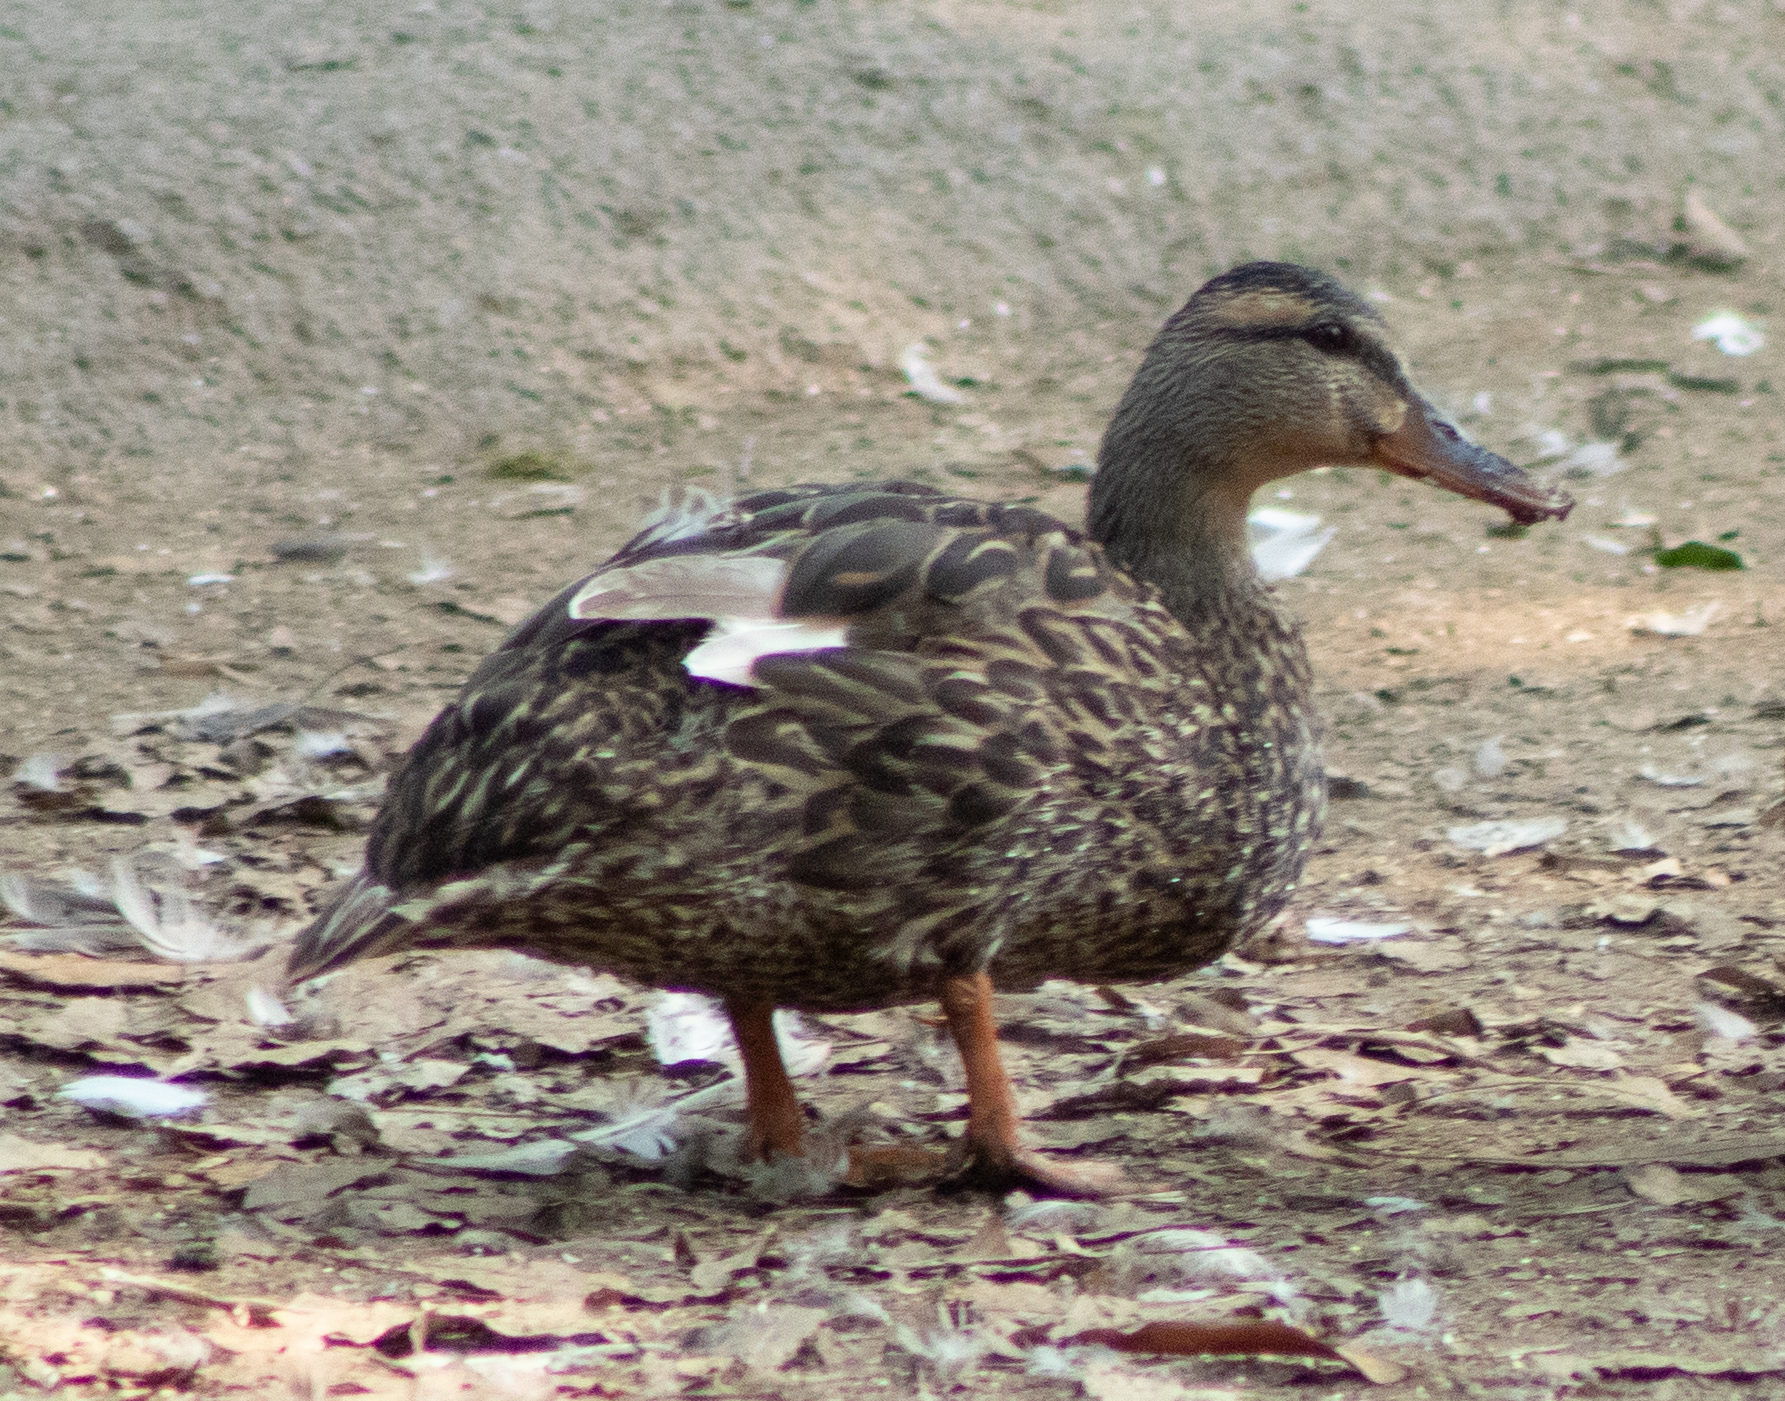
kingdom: Animalia
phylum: Chordata
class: Aves
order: Anseriformes
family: Anatidae
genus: Anas
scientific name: Anas platyrhynchos
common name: Mallard
